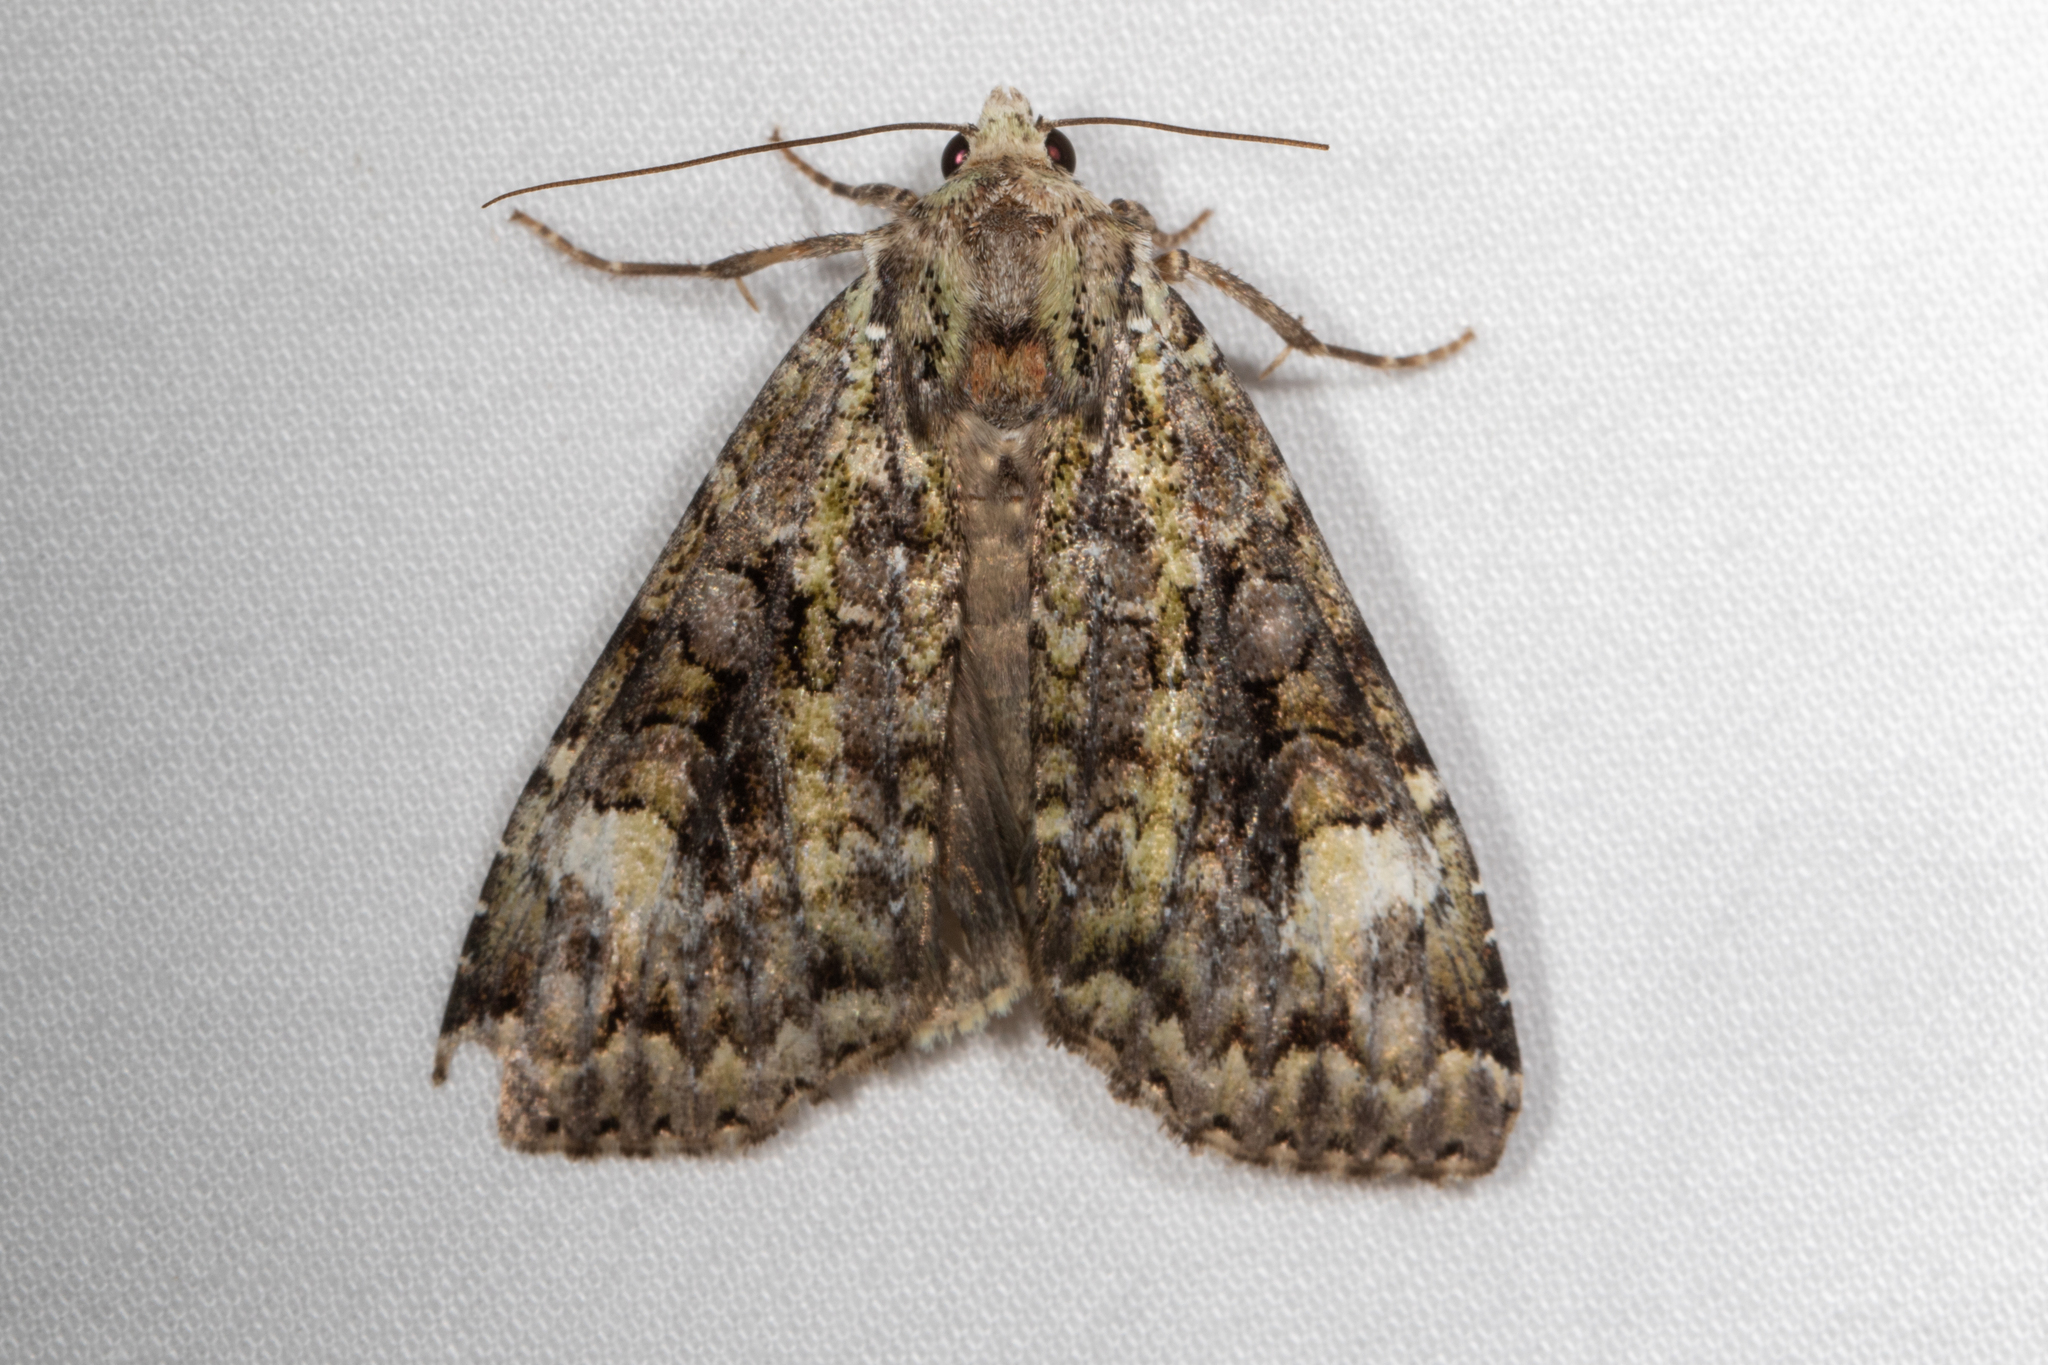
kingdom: Animalia
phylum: Arthropoda
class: Insecta
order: Lepidoptera
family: Noctuidae
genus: Anaplectoides
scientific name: Anaplectoides prasina
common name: Green arches
